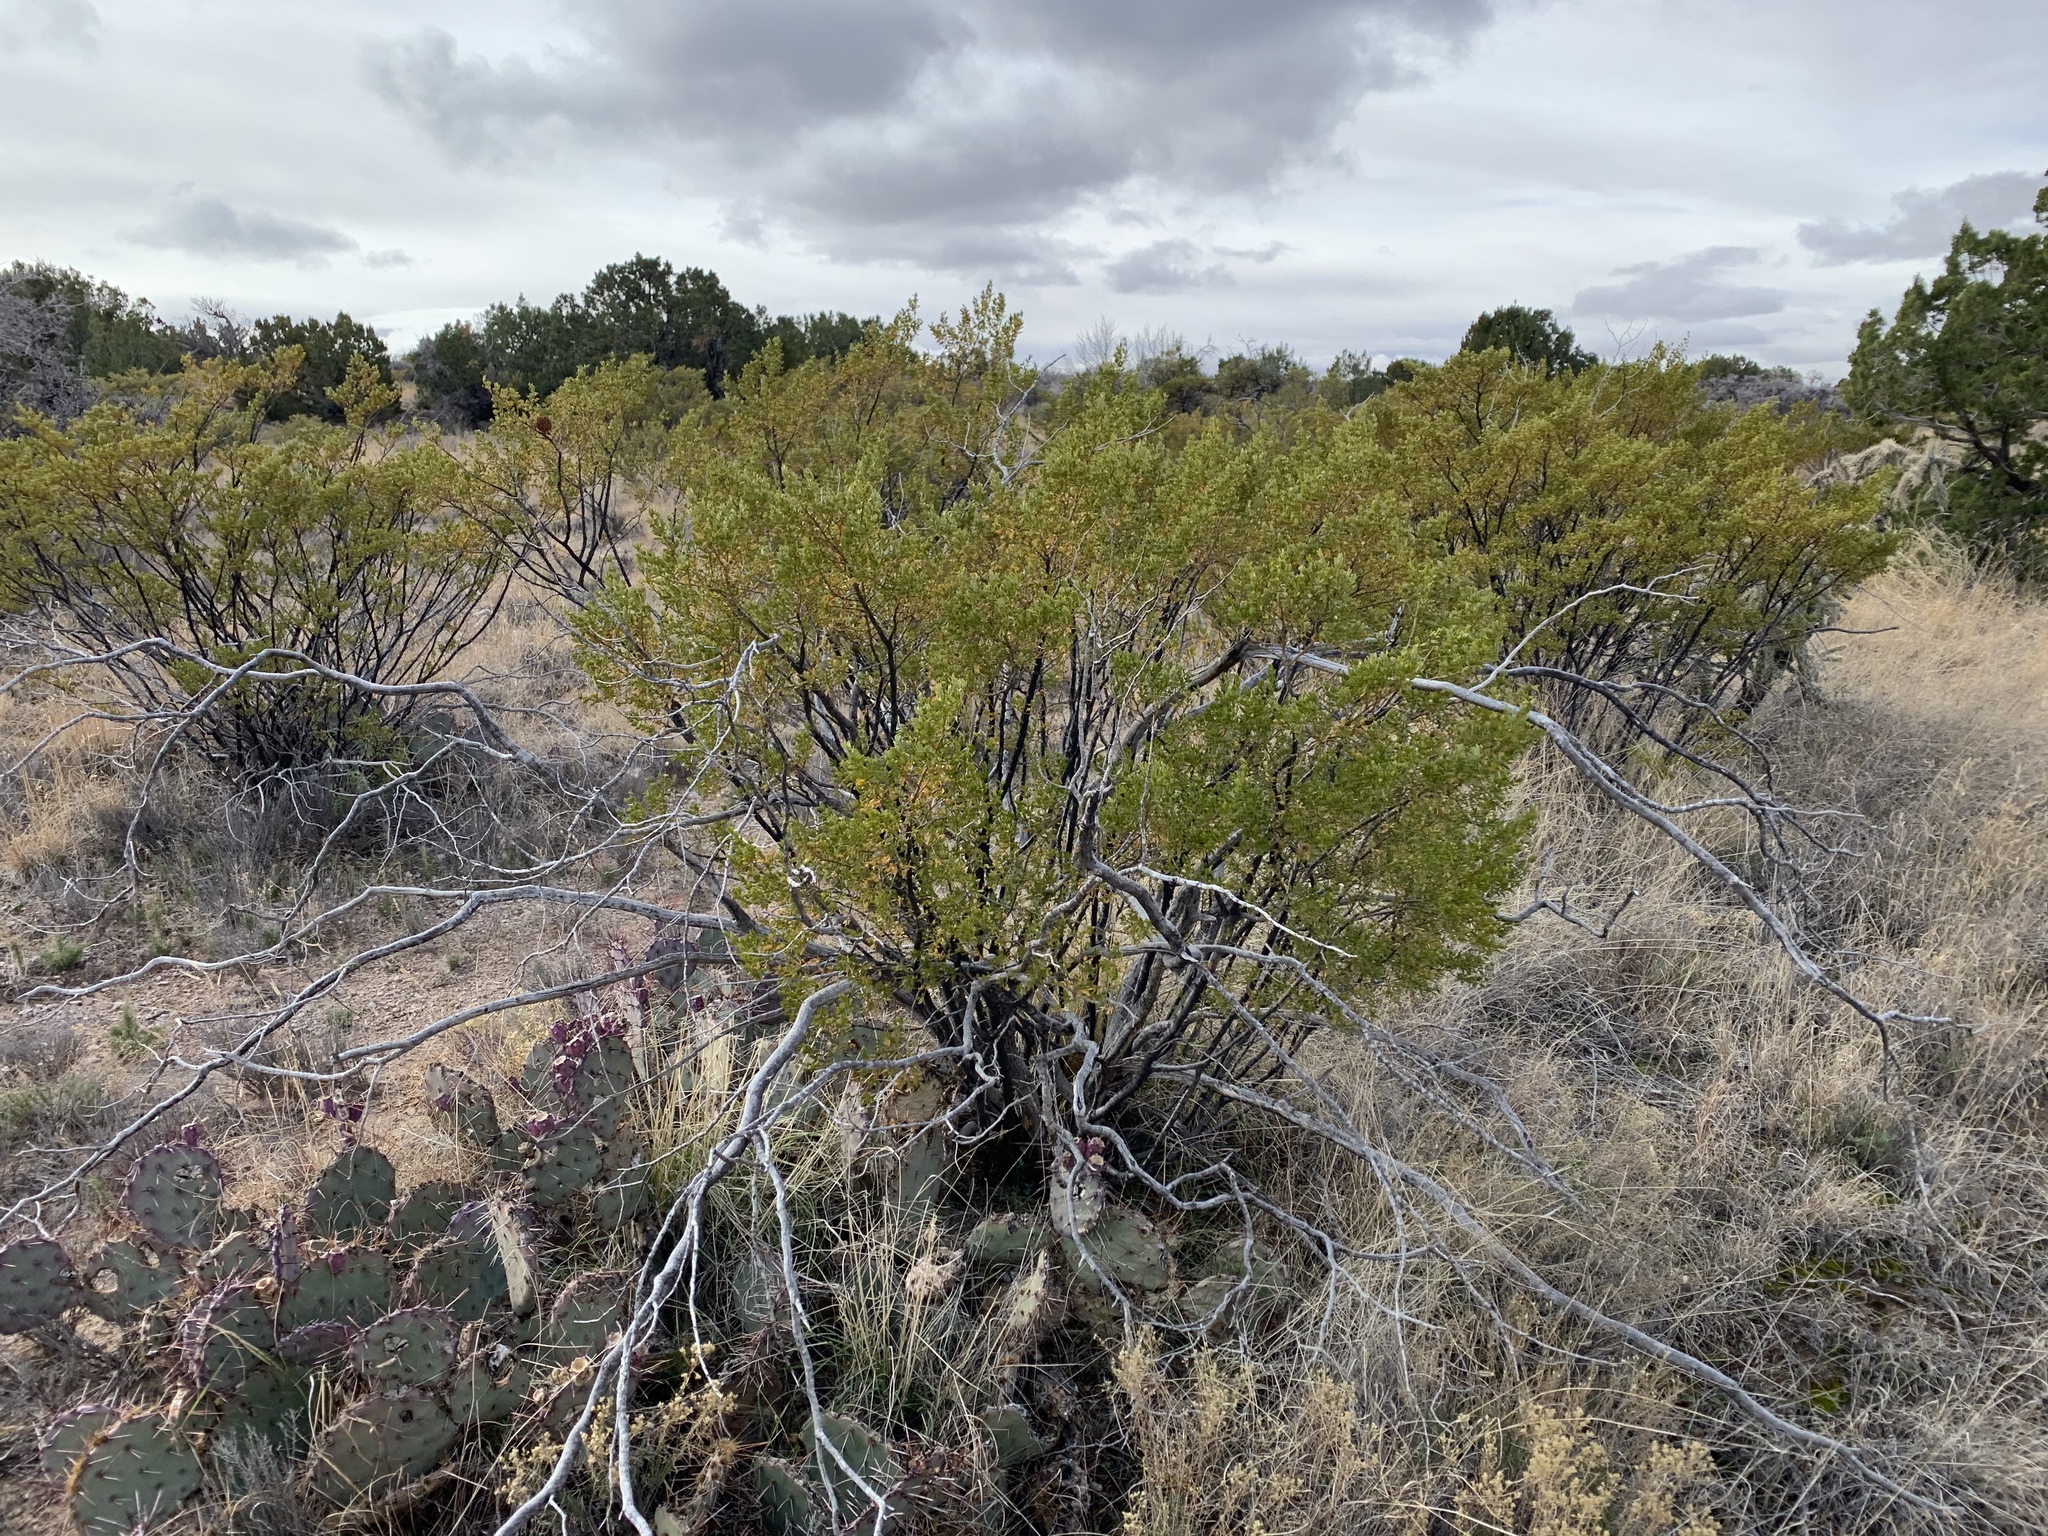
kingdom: Plantae
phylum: Tracheophyta
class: Magnoliopsida
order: Zygophyllales
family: Zygophyllaceae
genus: Larrea
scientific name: Larrea tridentata
